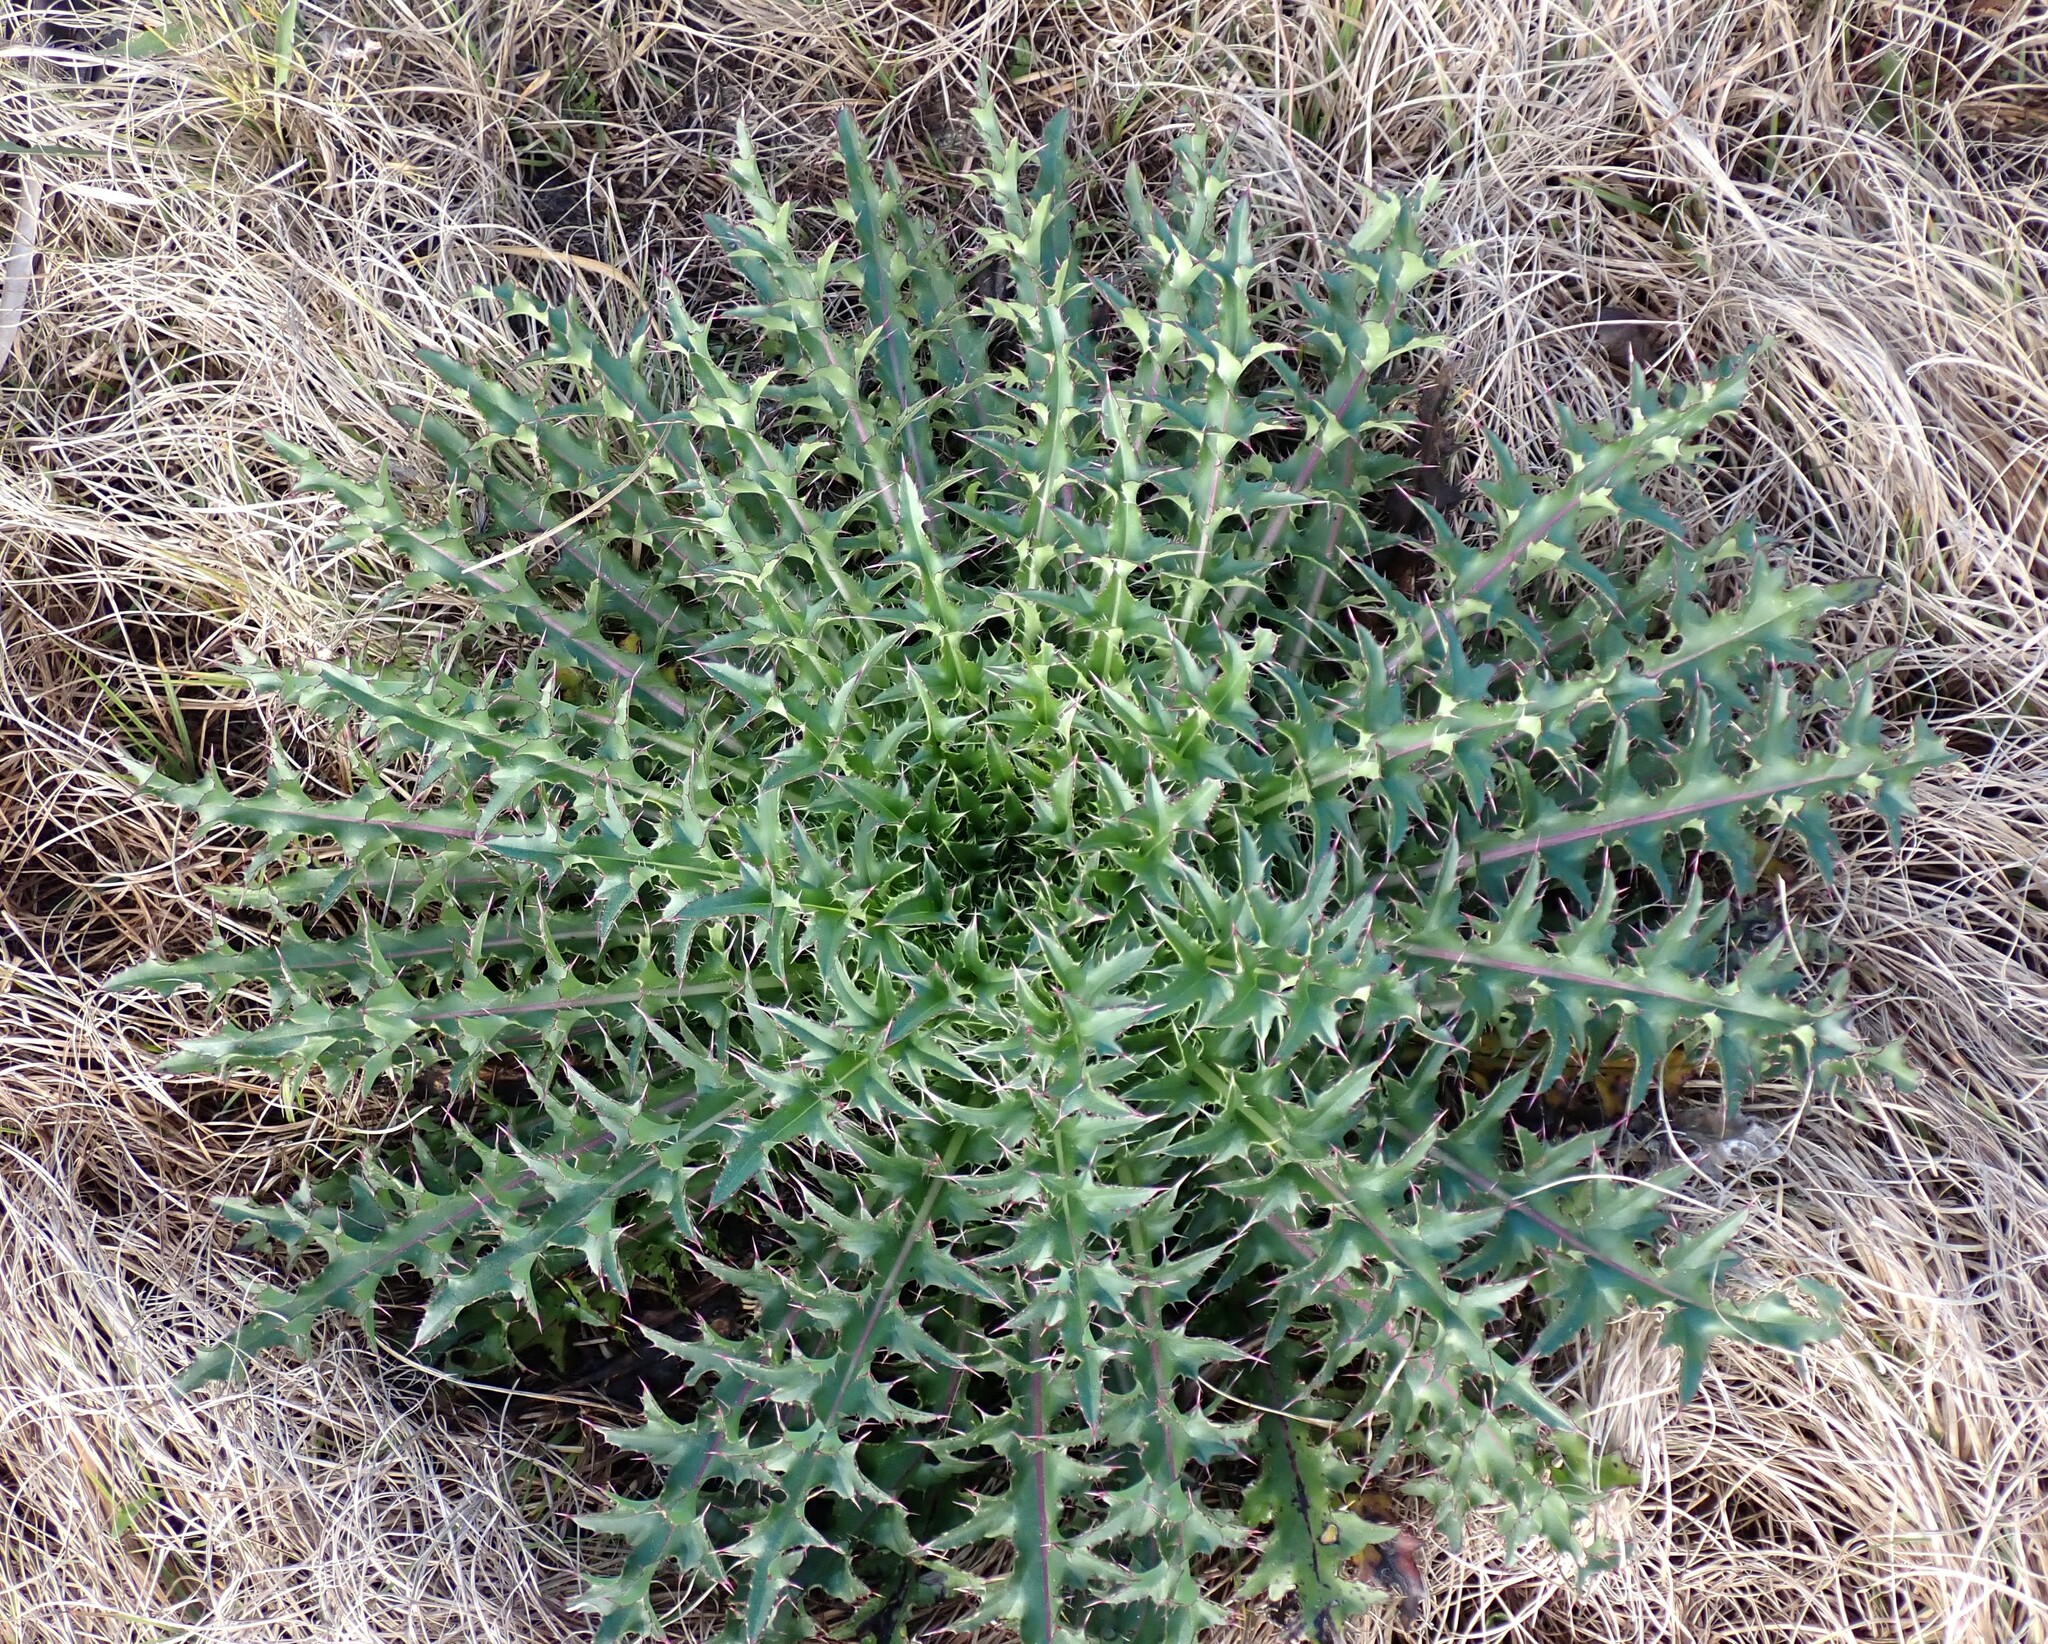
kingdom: Plantae
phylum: Tracheophyta
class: Magnoliopsida
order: Asterales
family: Asteraceae
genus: Cirsium
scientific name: Cirsium horridulum
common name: Bristly thistle
